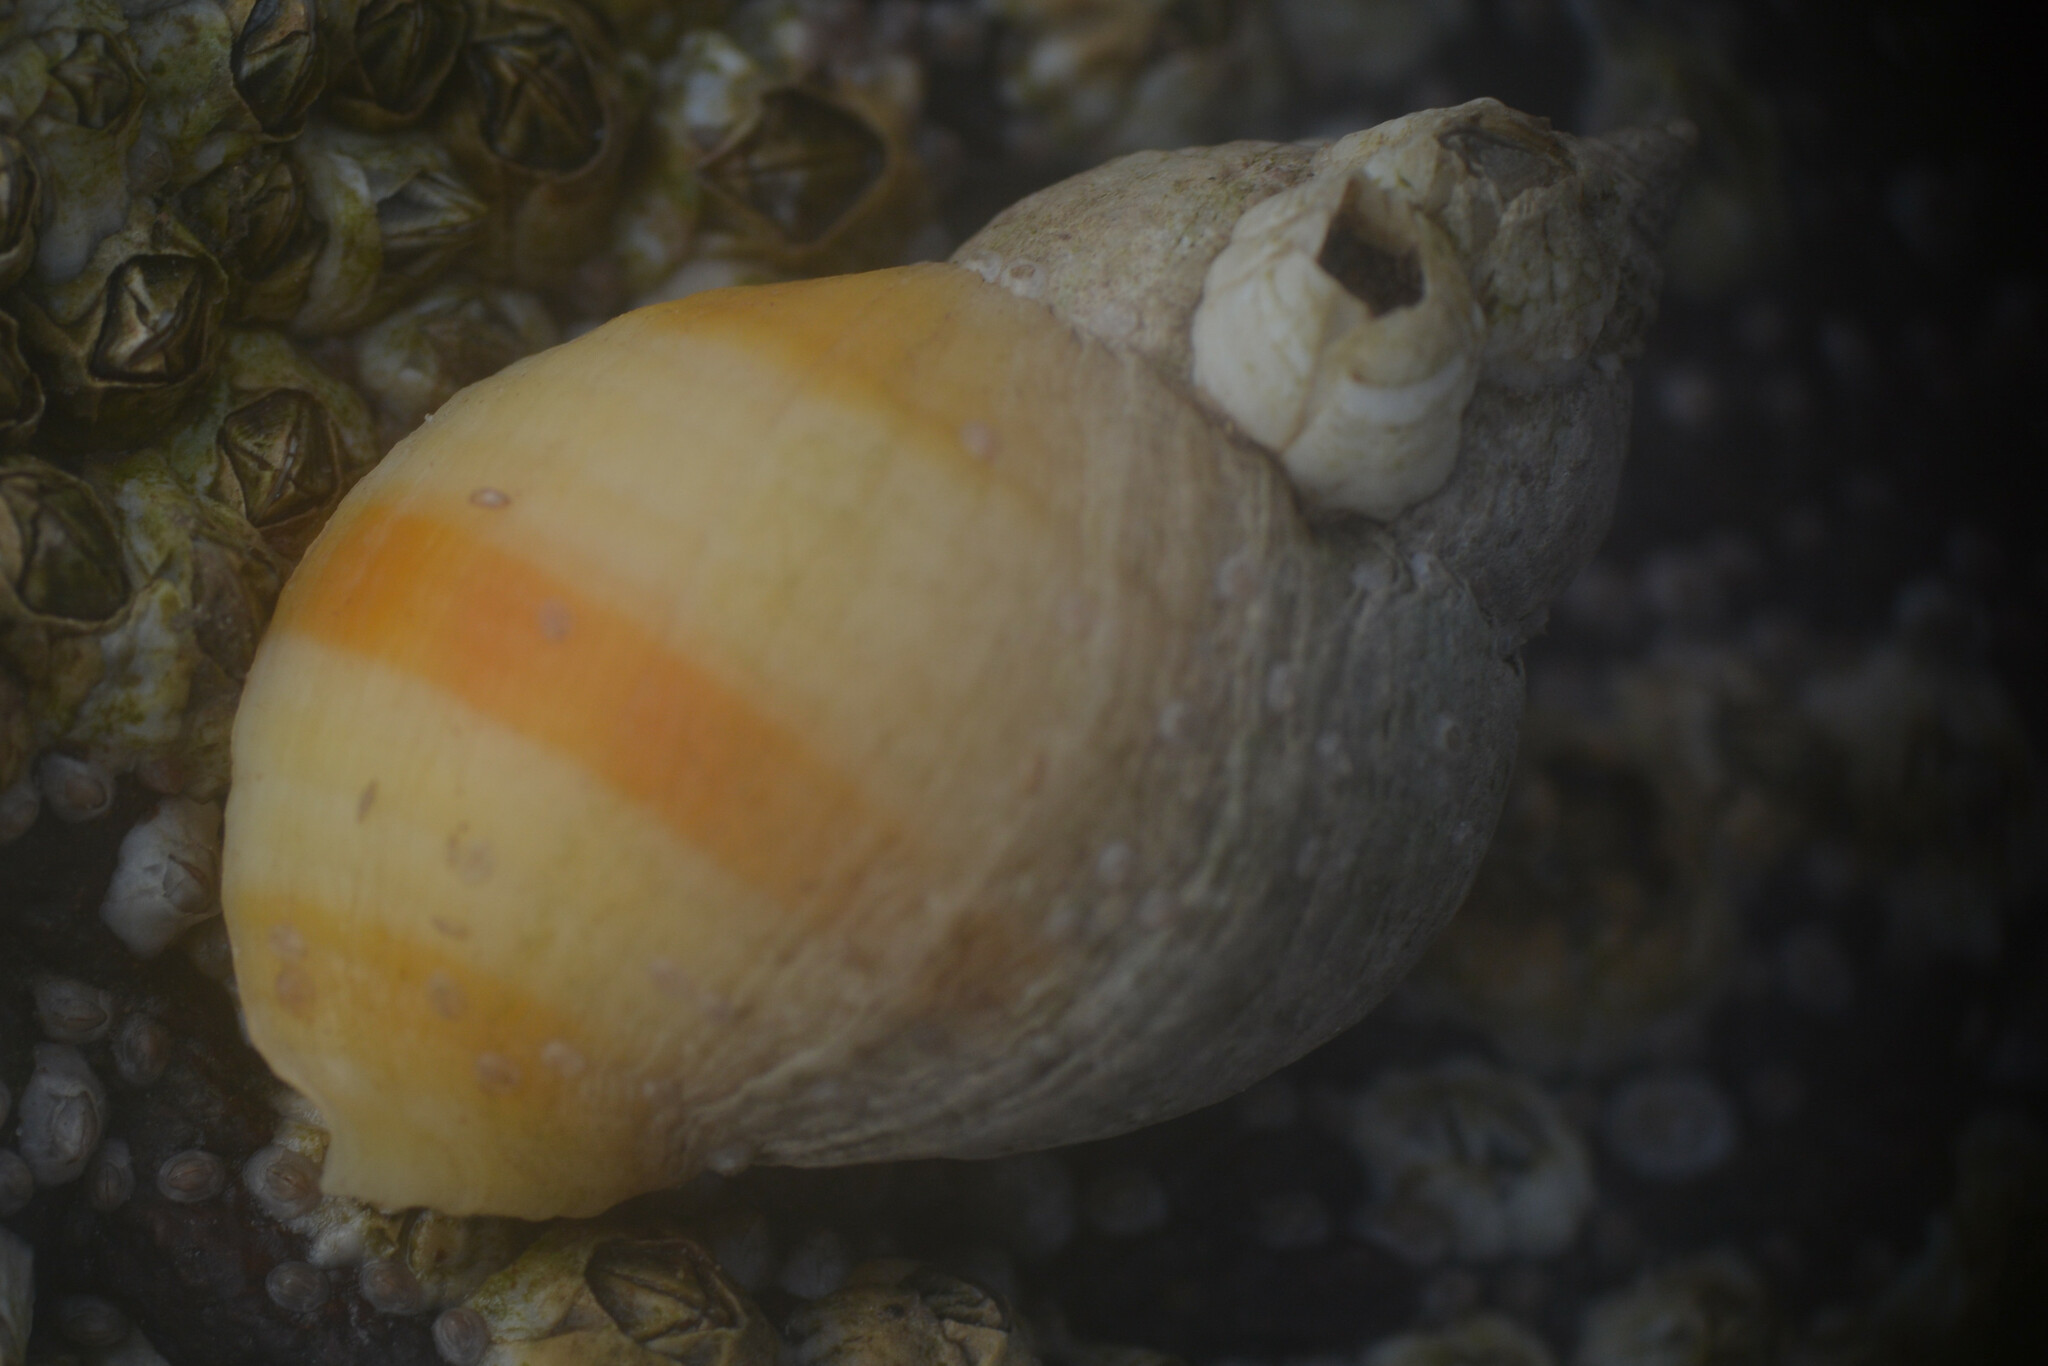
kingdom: Animalia
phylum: Mollusca
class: Gastropoda
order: Neogastropoda
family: Muricidae
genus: Nucella
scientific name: Nucella lapillus
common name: Dog whelk
